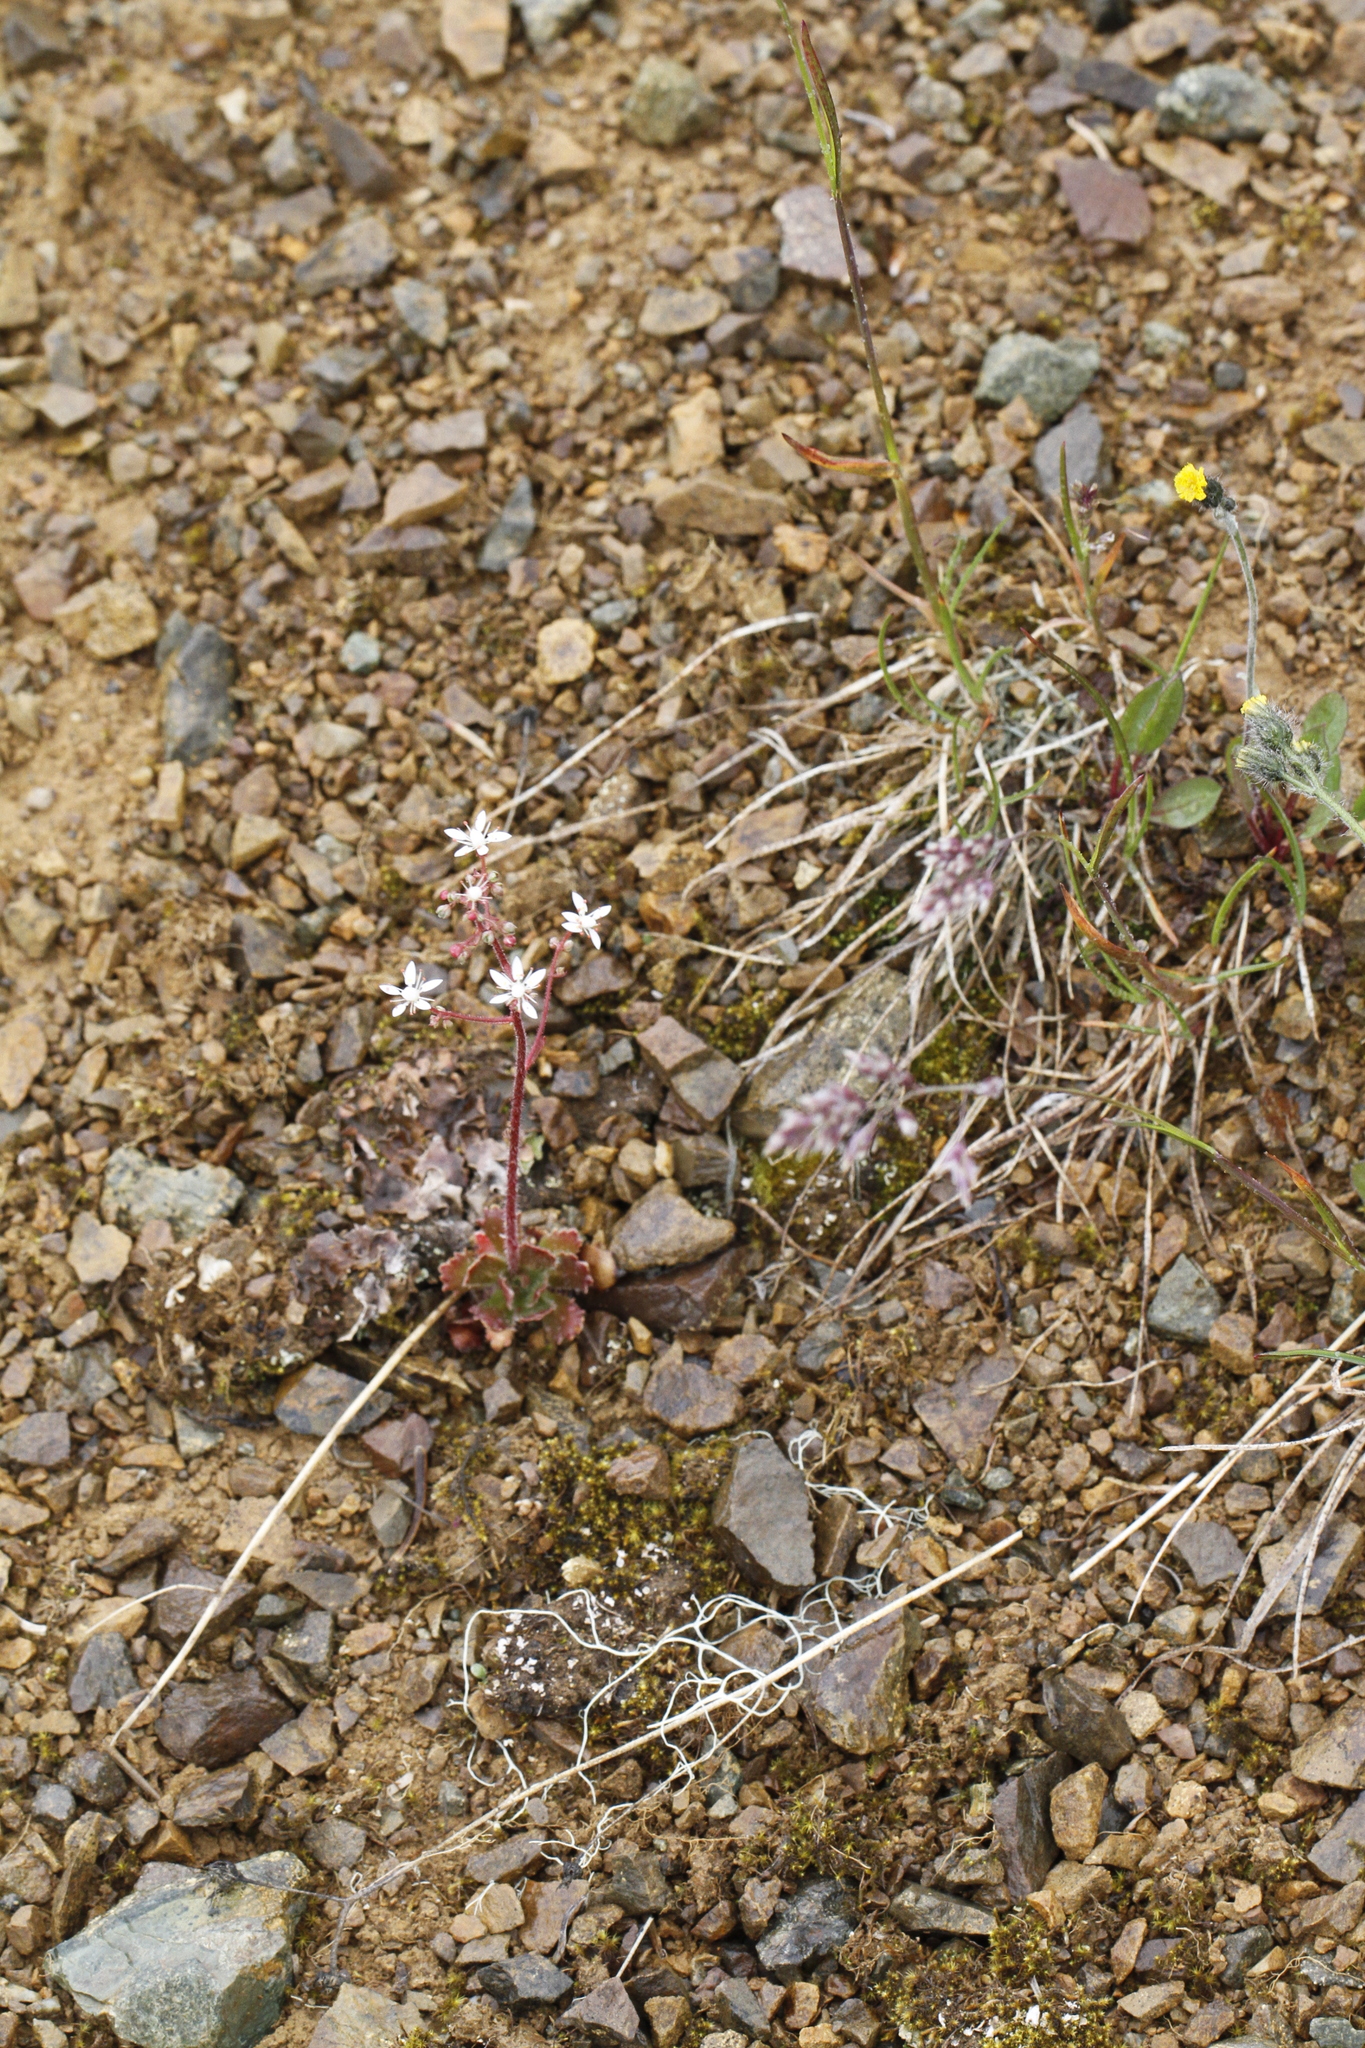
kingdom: Plantae
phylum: Tracheophyta
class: Magnoliopsida
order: Saxifragales
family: Saxifragaceae
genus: Micranthes
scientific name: Micranthes ferruginea
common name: Rusty saxifrage
